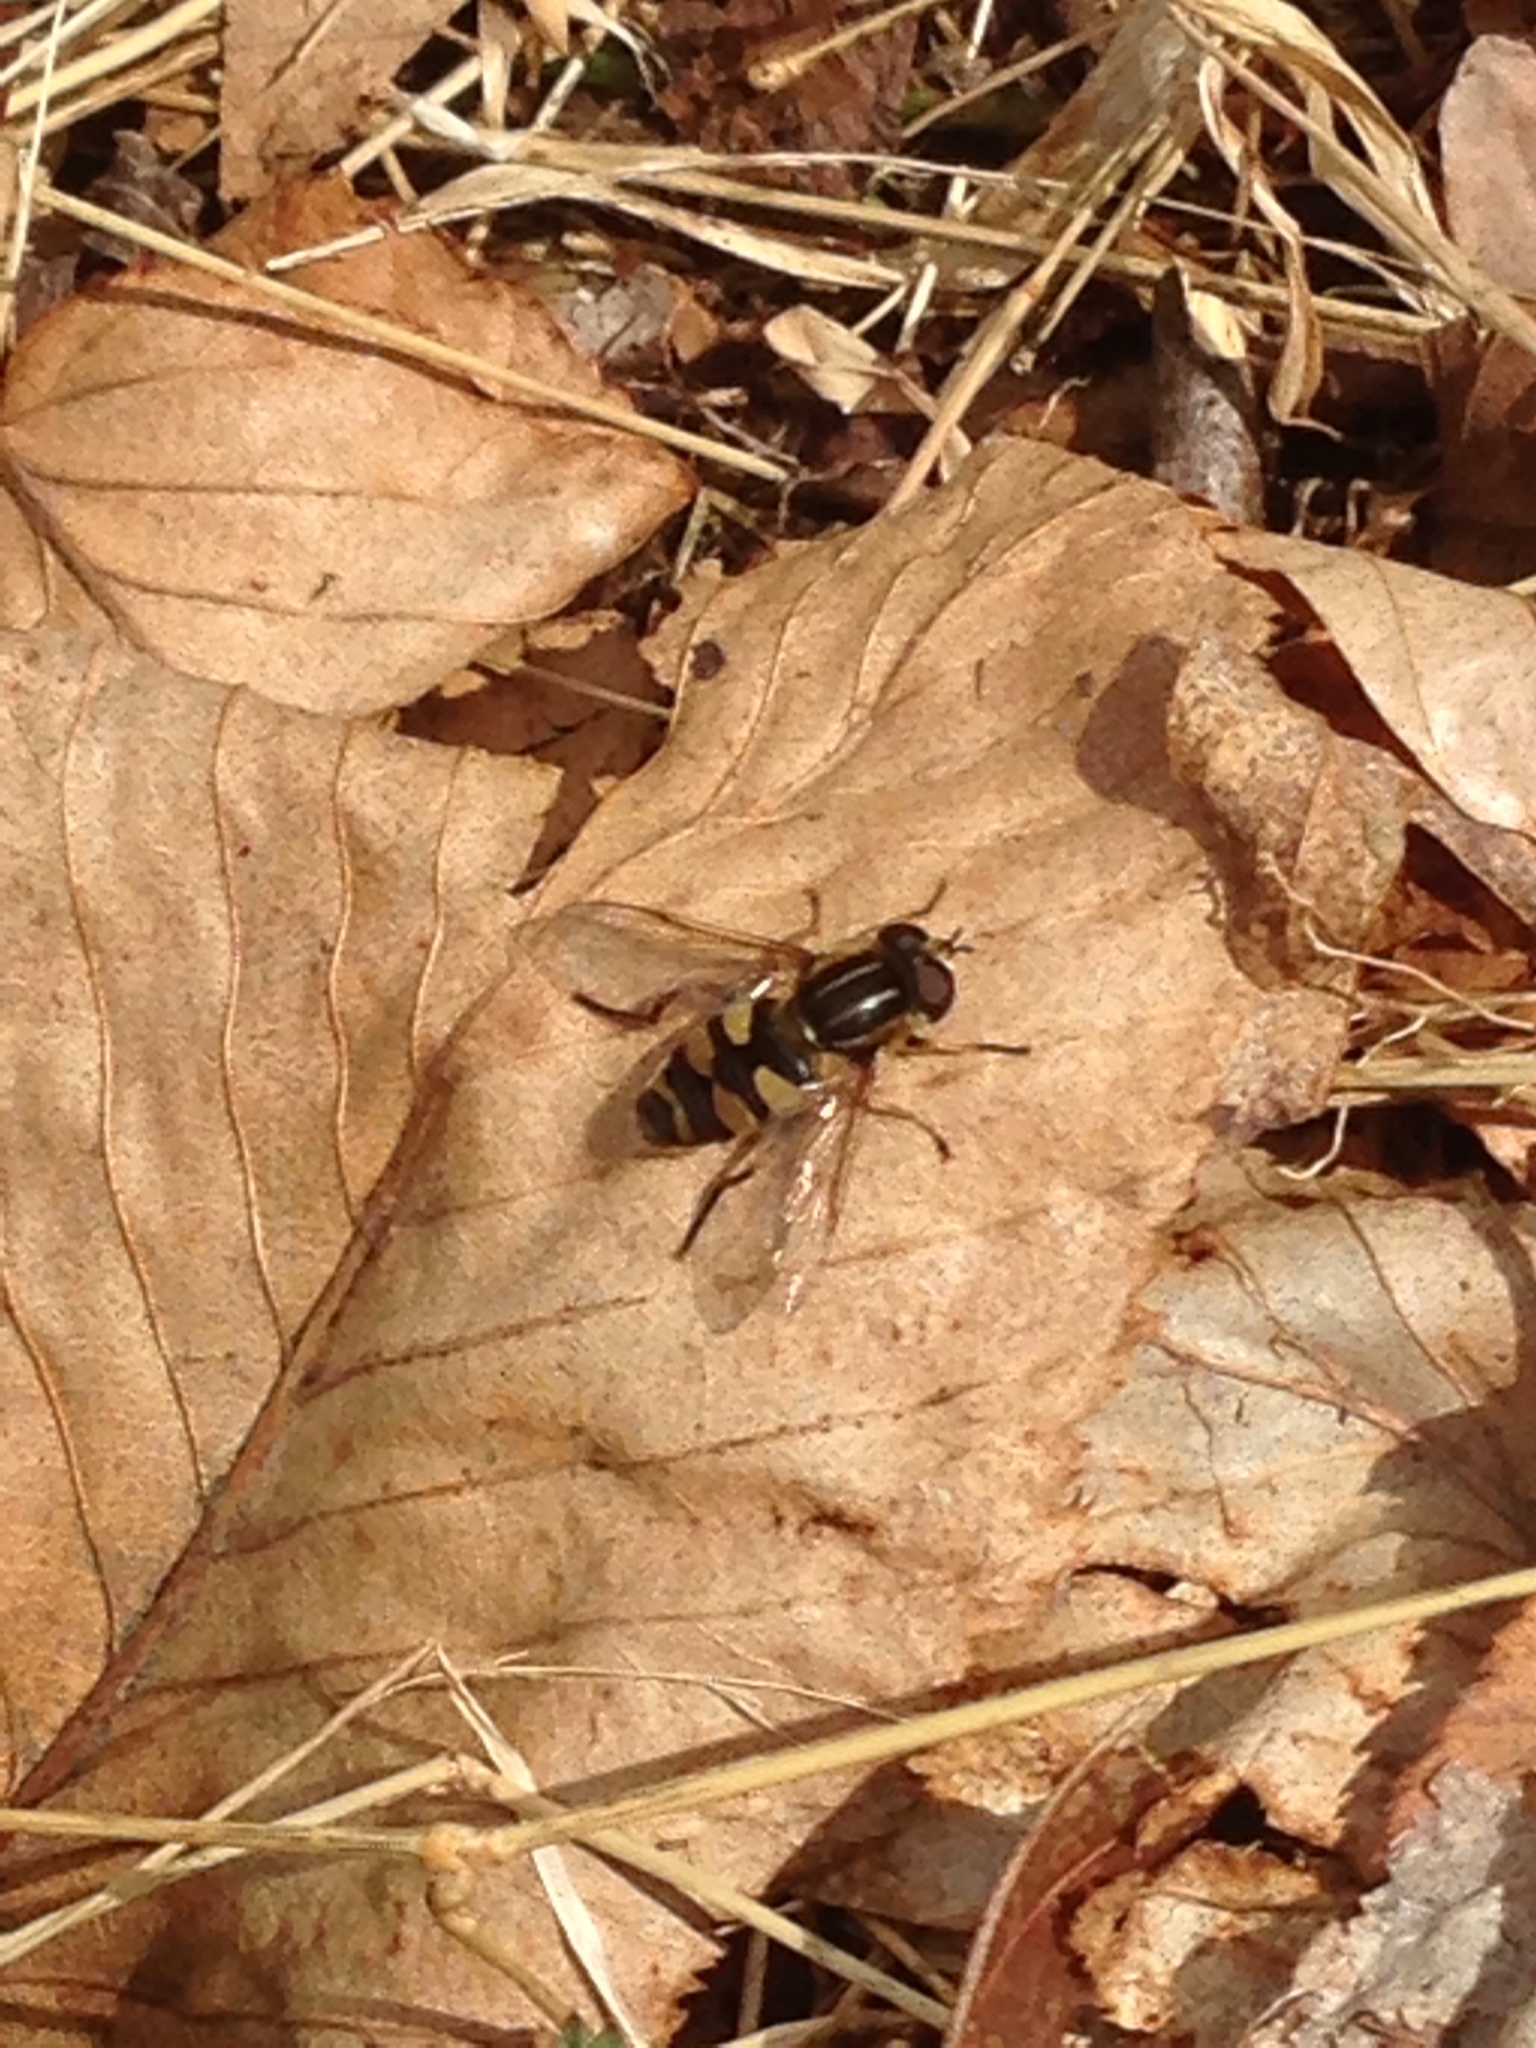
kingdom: Animalia
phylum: Arthropoda
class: Insecta
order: Diptera
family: Syrphidae
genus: Helophilus
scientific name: Helophilus fasciatus
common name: Narrow-headed marsh fly
